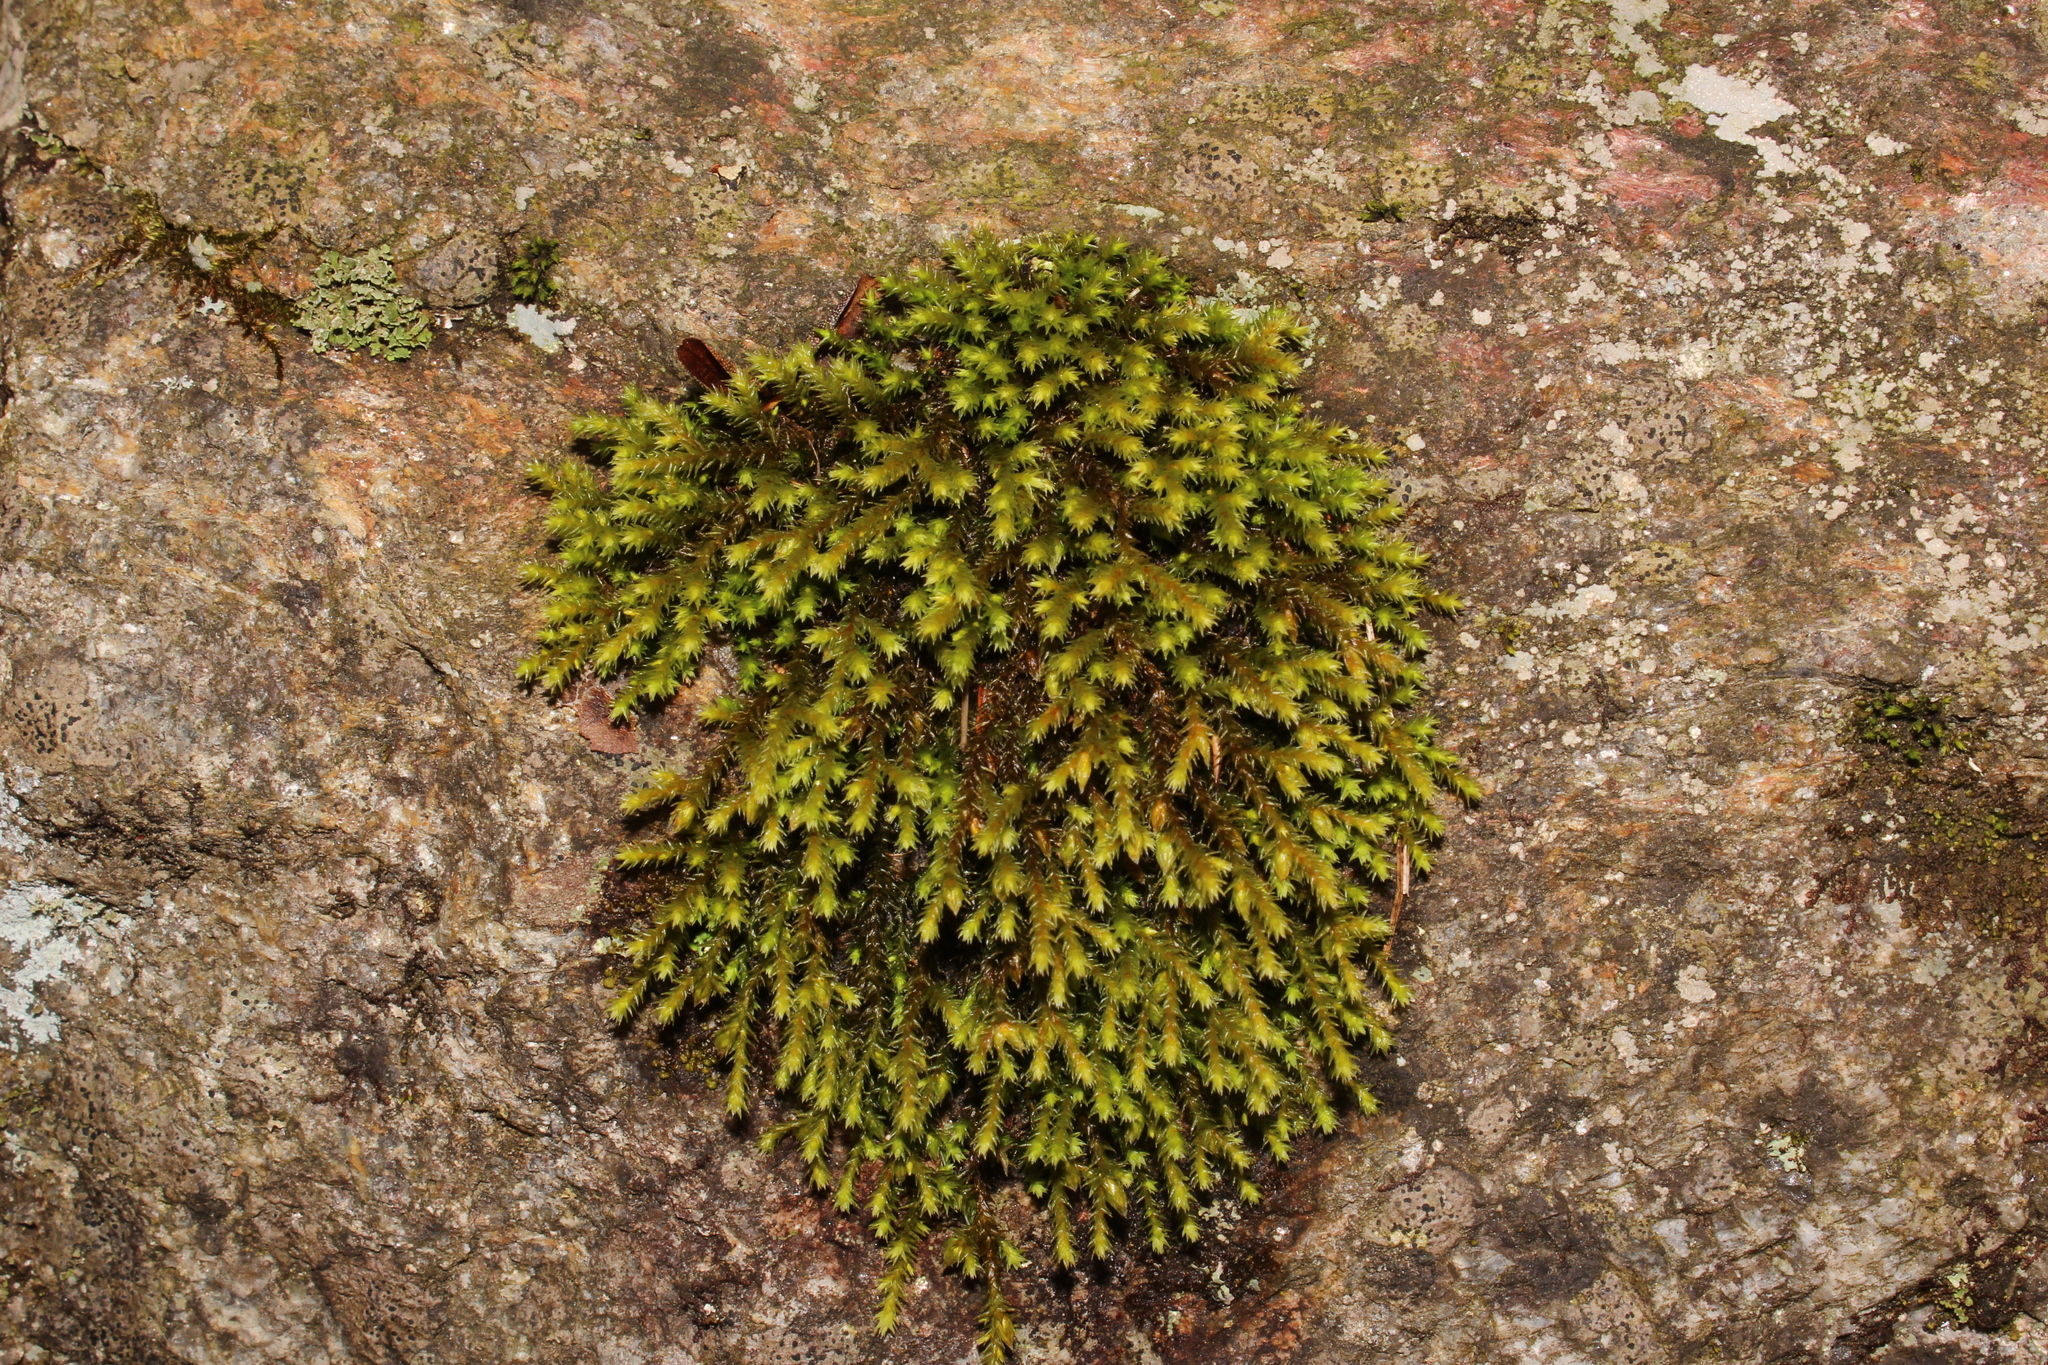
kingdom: Plantae
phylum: Bryophyta
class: Bryopsida
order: Hedwigiales
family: Hedwigiaceae
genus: Hedwigia
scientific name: Hedwigia ciliata
